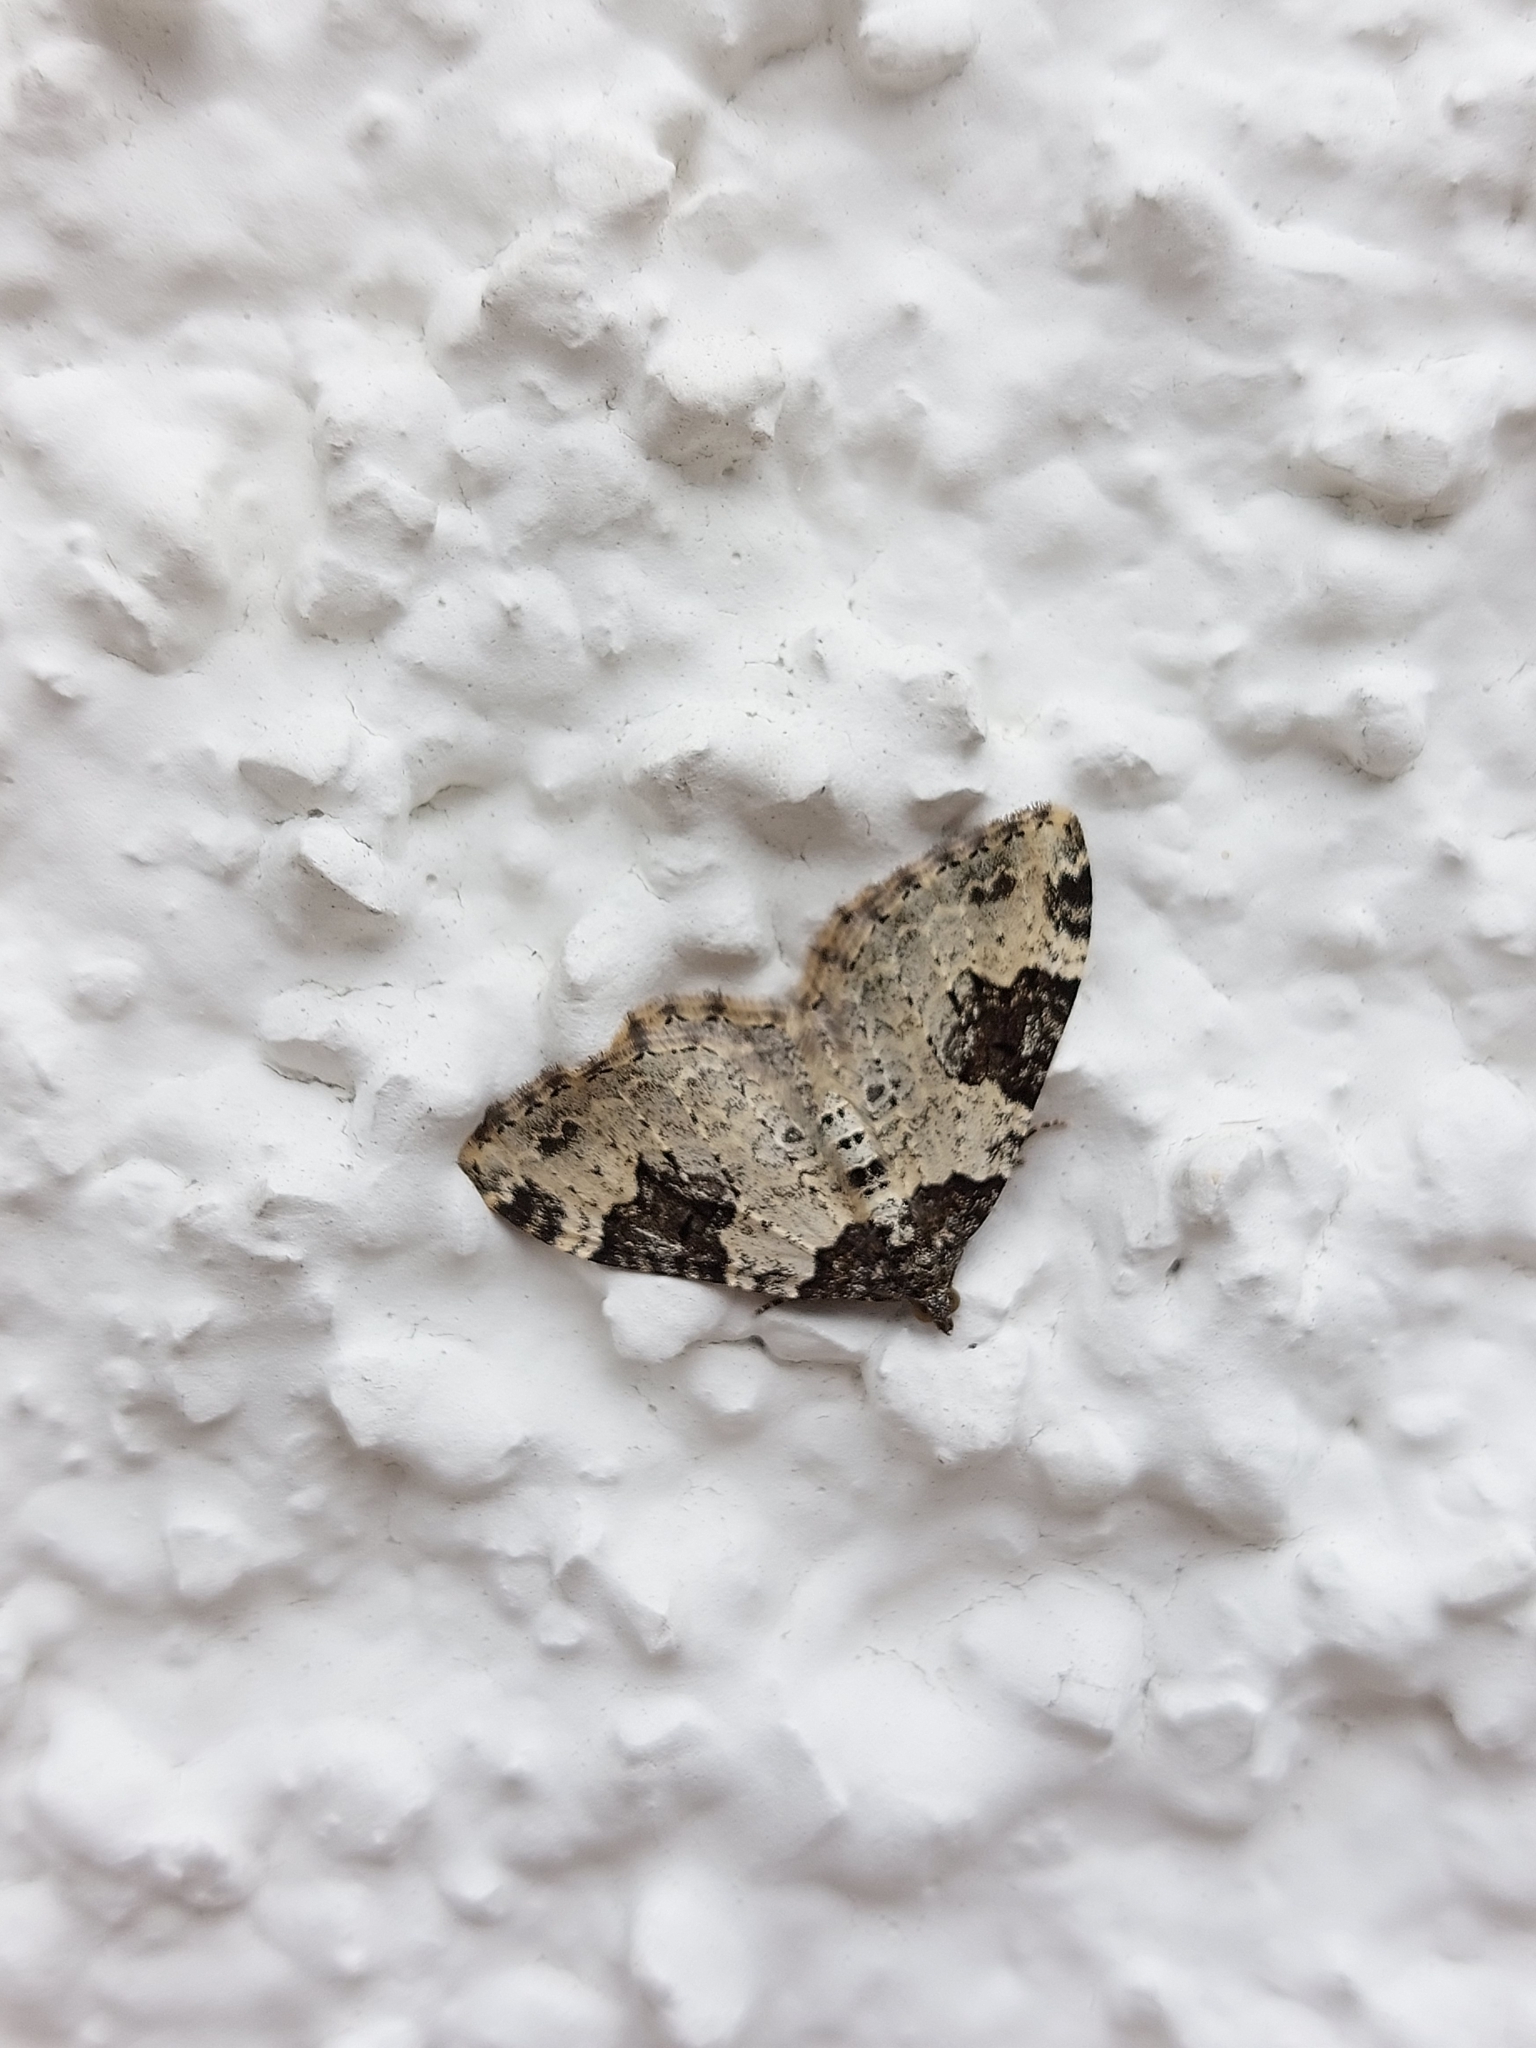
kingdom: Animalia
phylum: Arthropoda
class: Insecta
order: Lepidoptera
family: Geometridae
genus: Xanthorhoe
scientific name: Xanthorhoe fluctuata
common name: Garden carpet
